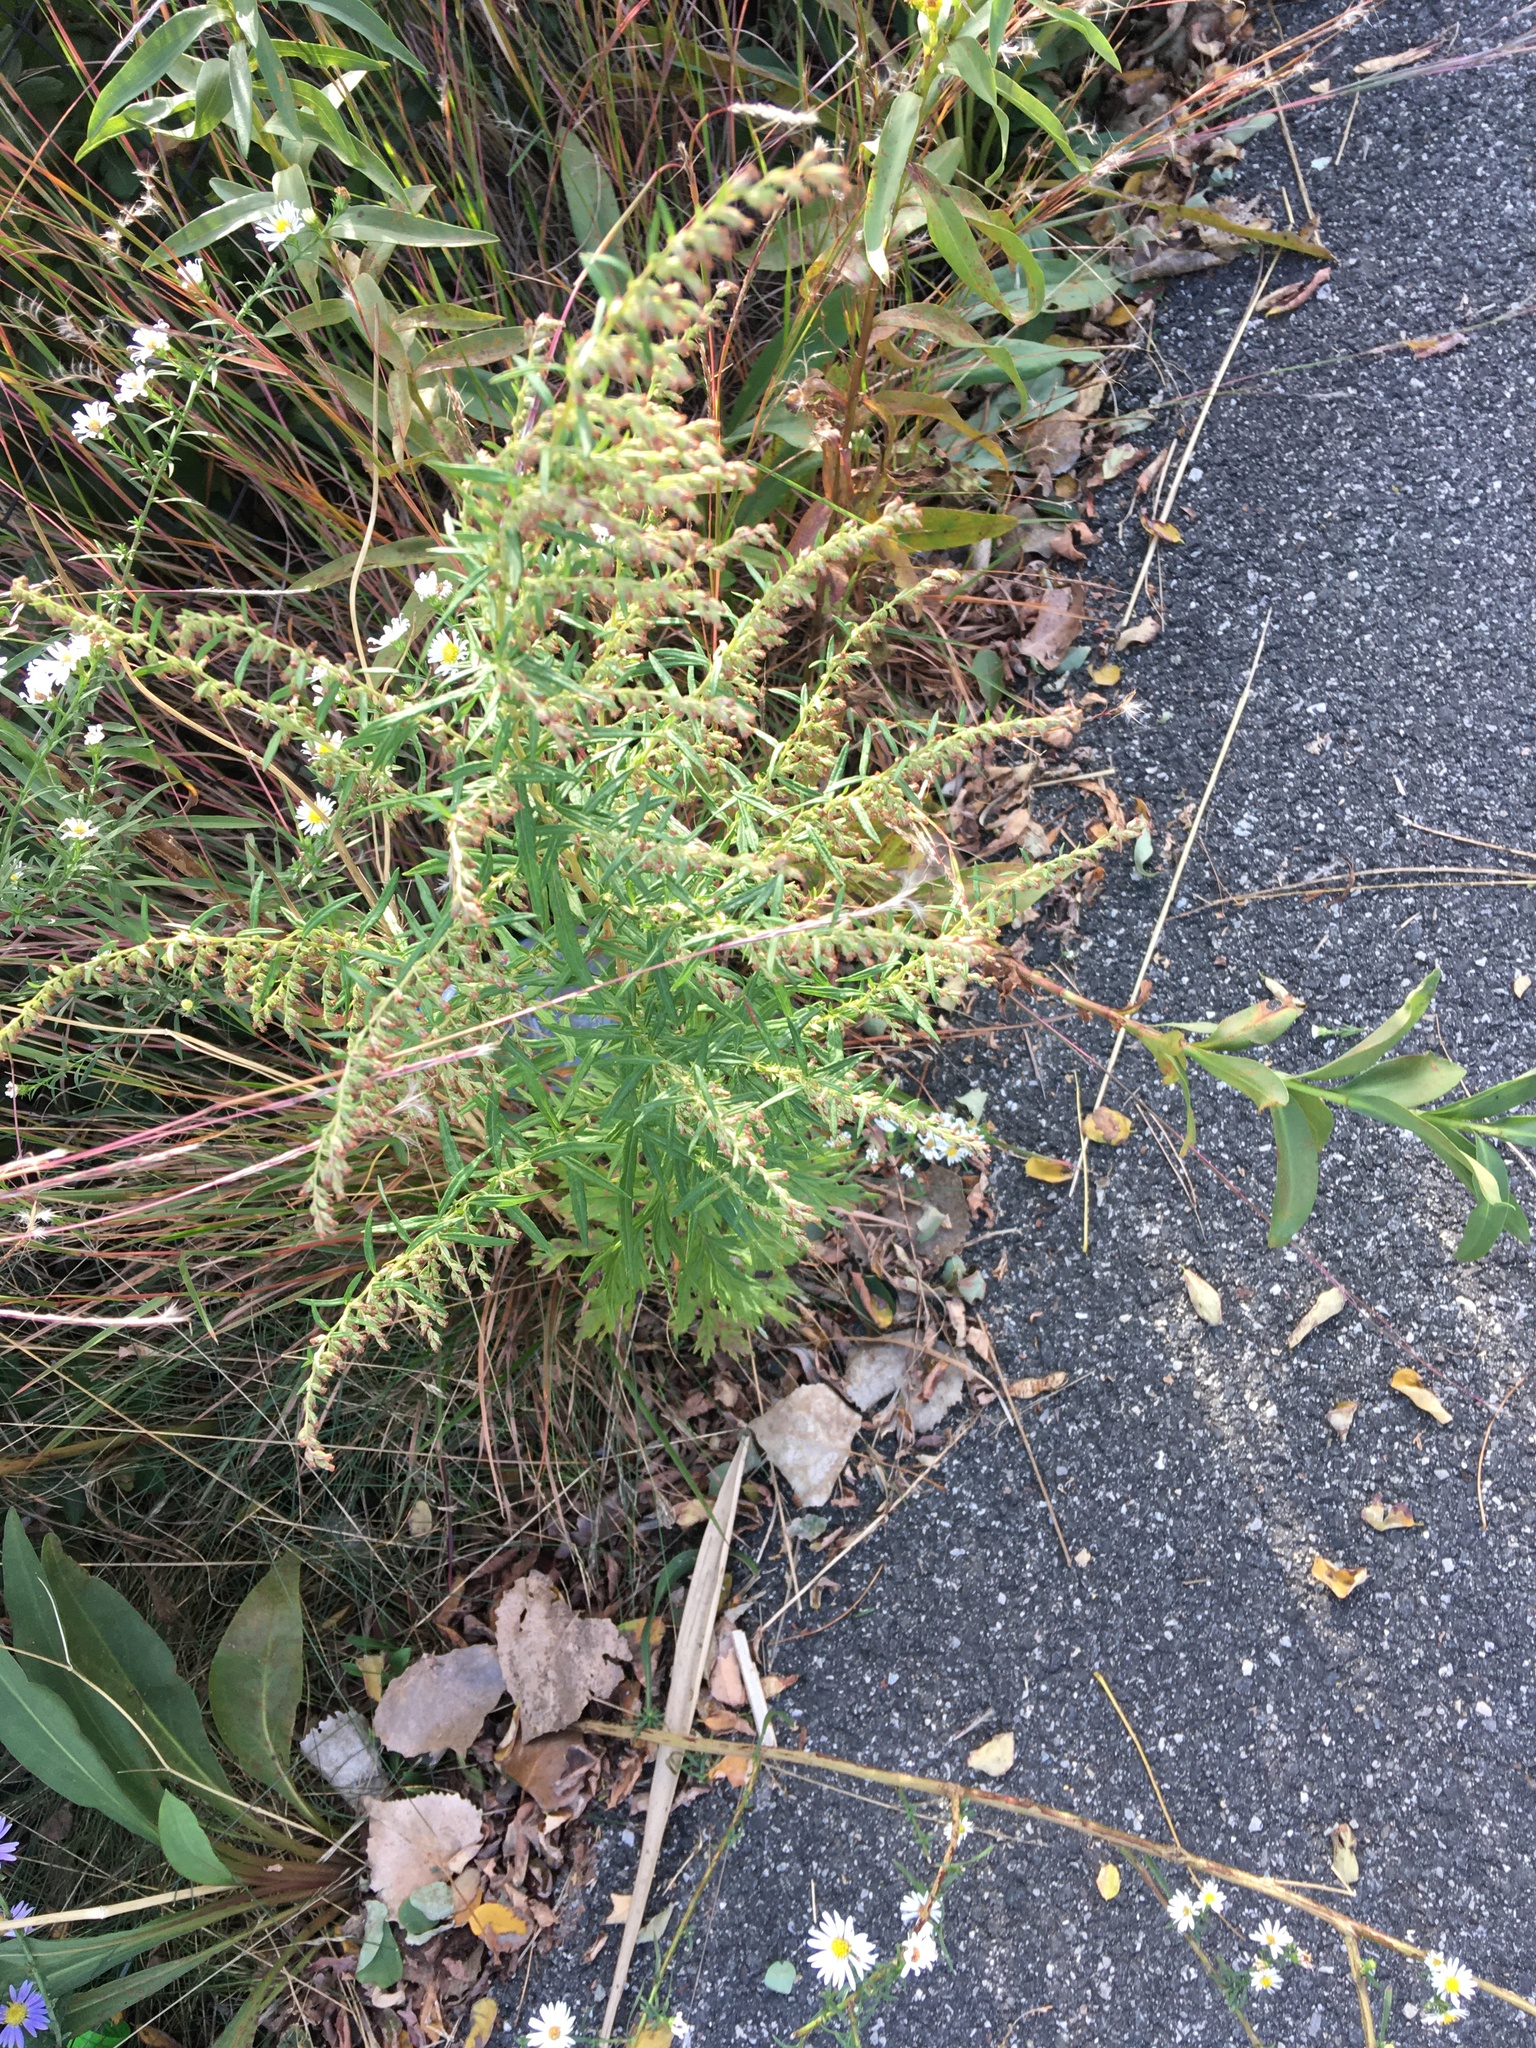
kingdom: Plantae
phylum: Tracheophyta
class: Magnoliopsida
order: Asterales
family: Asteraceae
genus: Artemisia
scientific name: Artemisia vulgaris
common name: Mugwort
